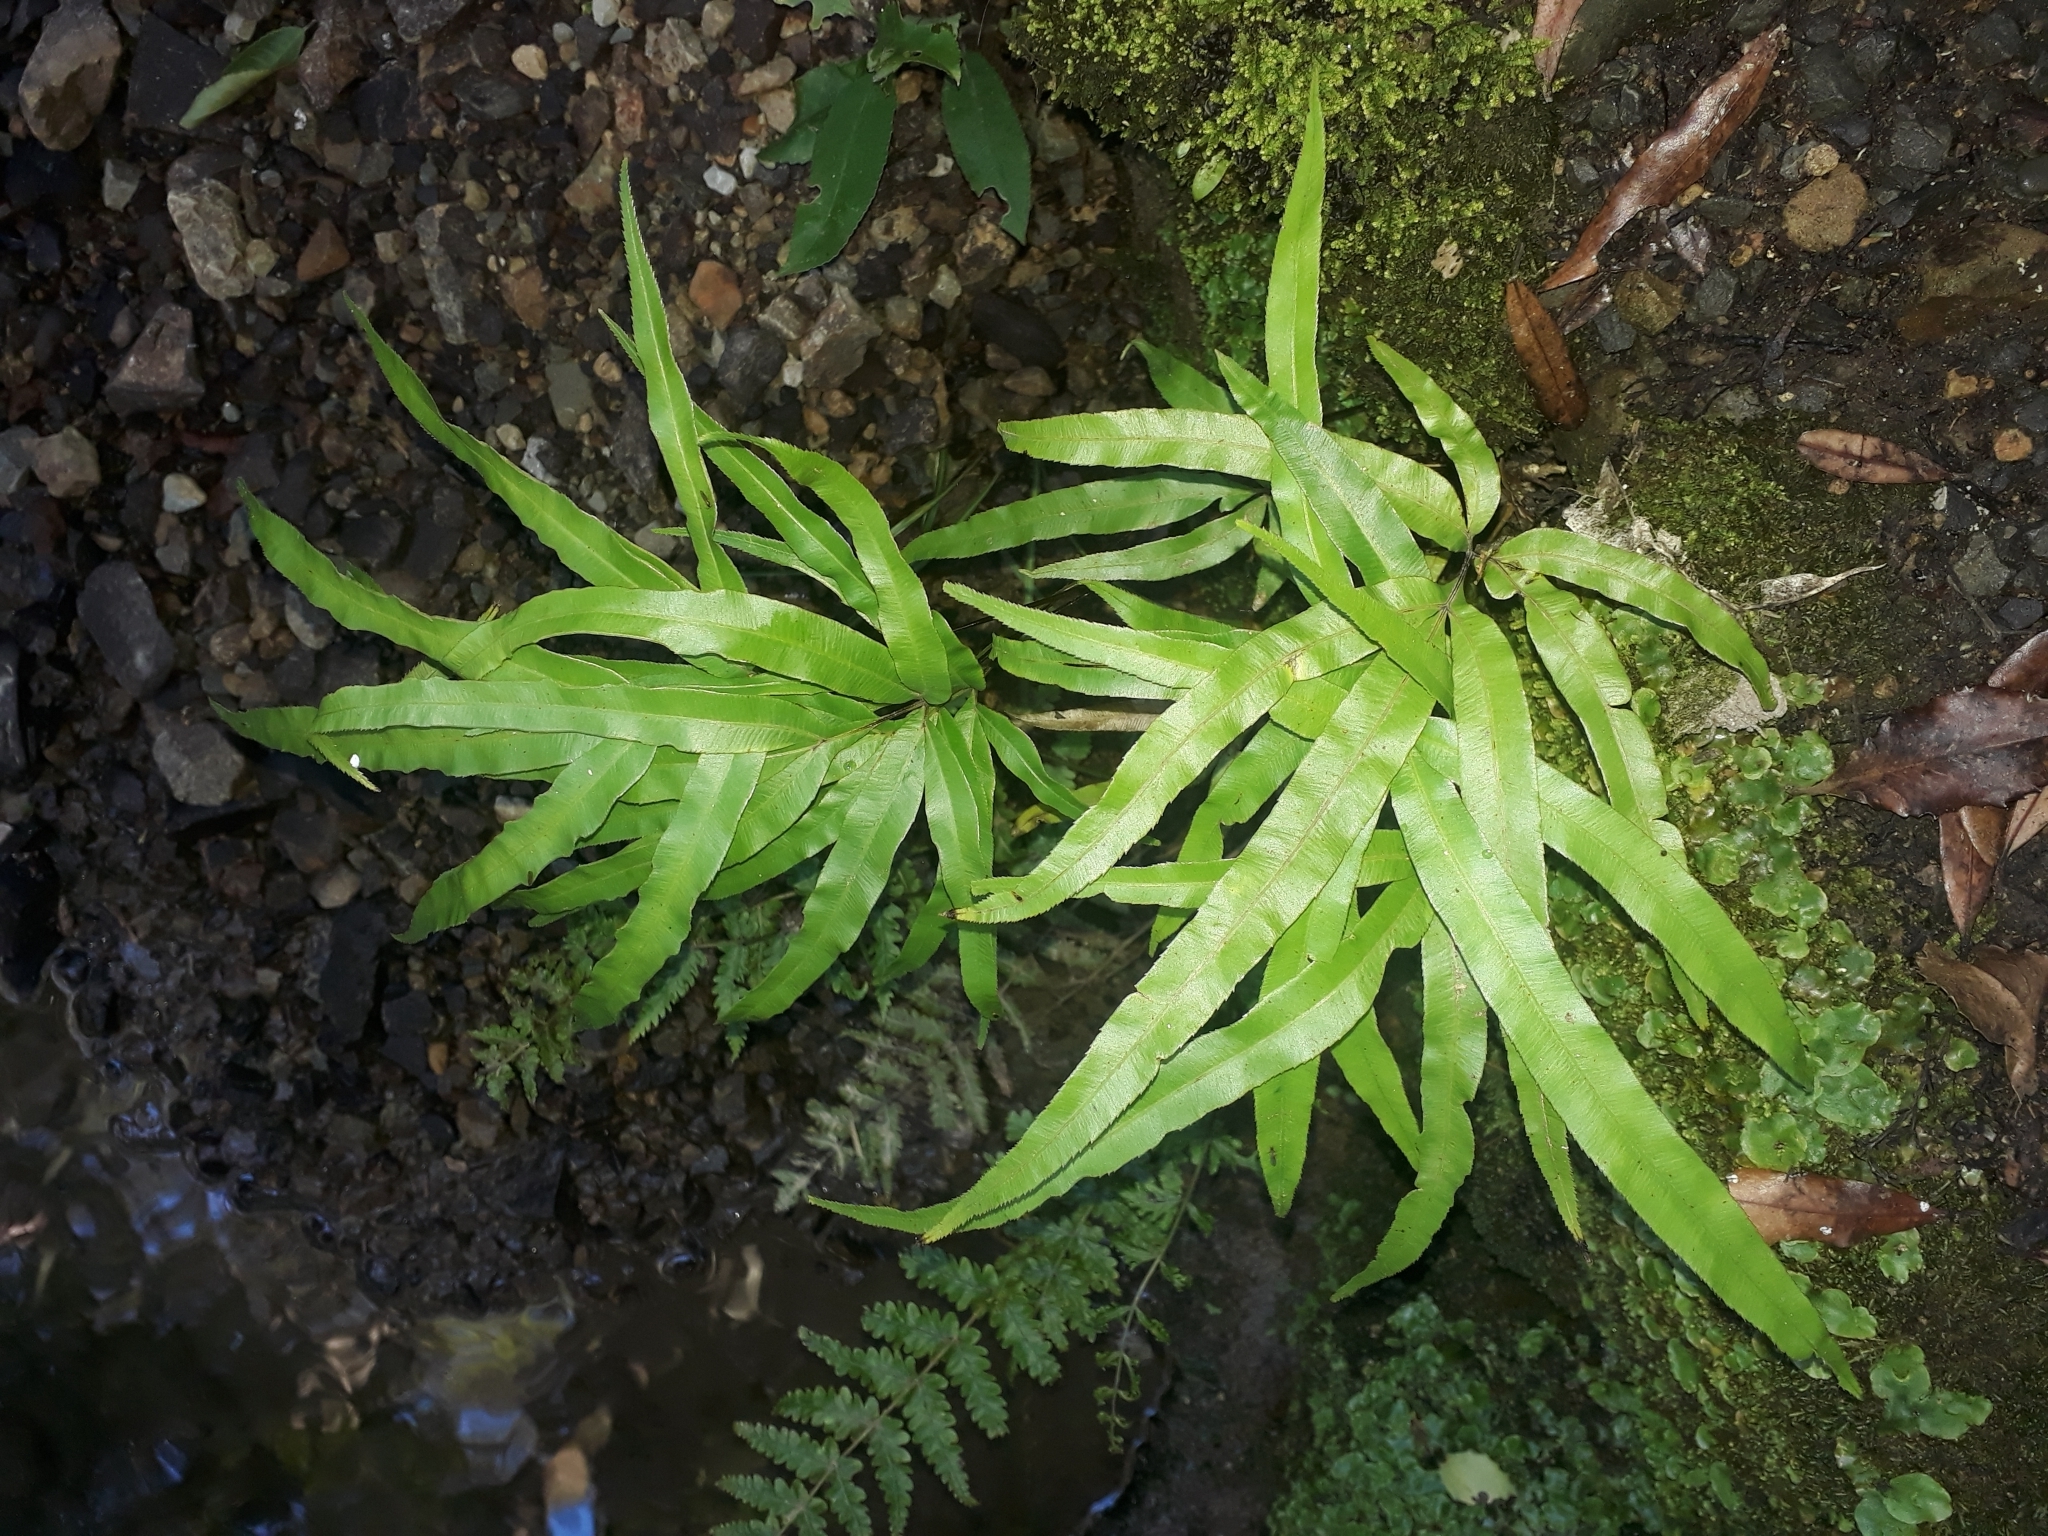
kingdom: Plantae
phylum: Tracheophyta
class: Polypodiopsida
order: Polypodiales
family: Pteridaceae
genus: Pteris
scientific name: Pteris cretica
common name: Ribbon fern
